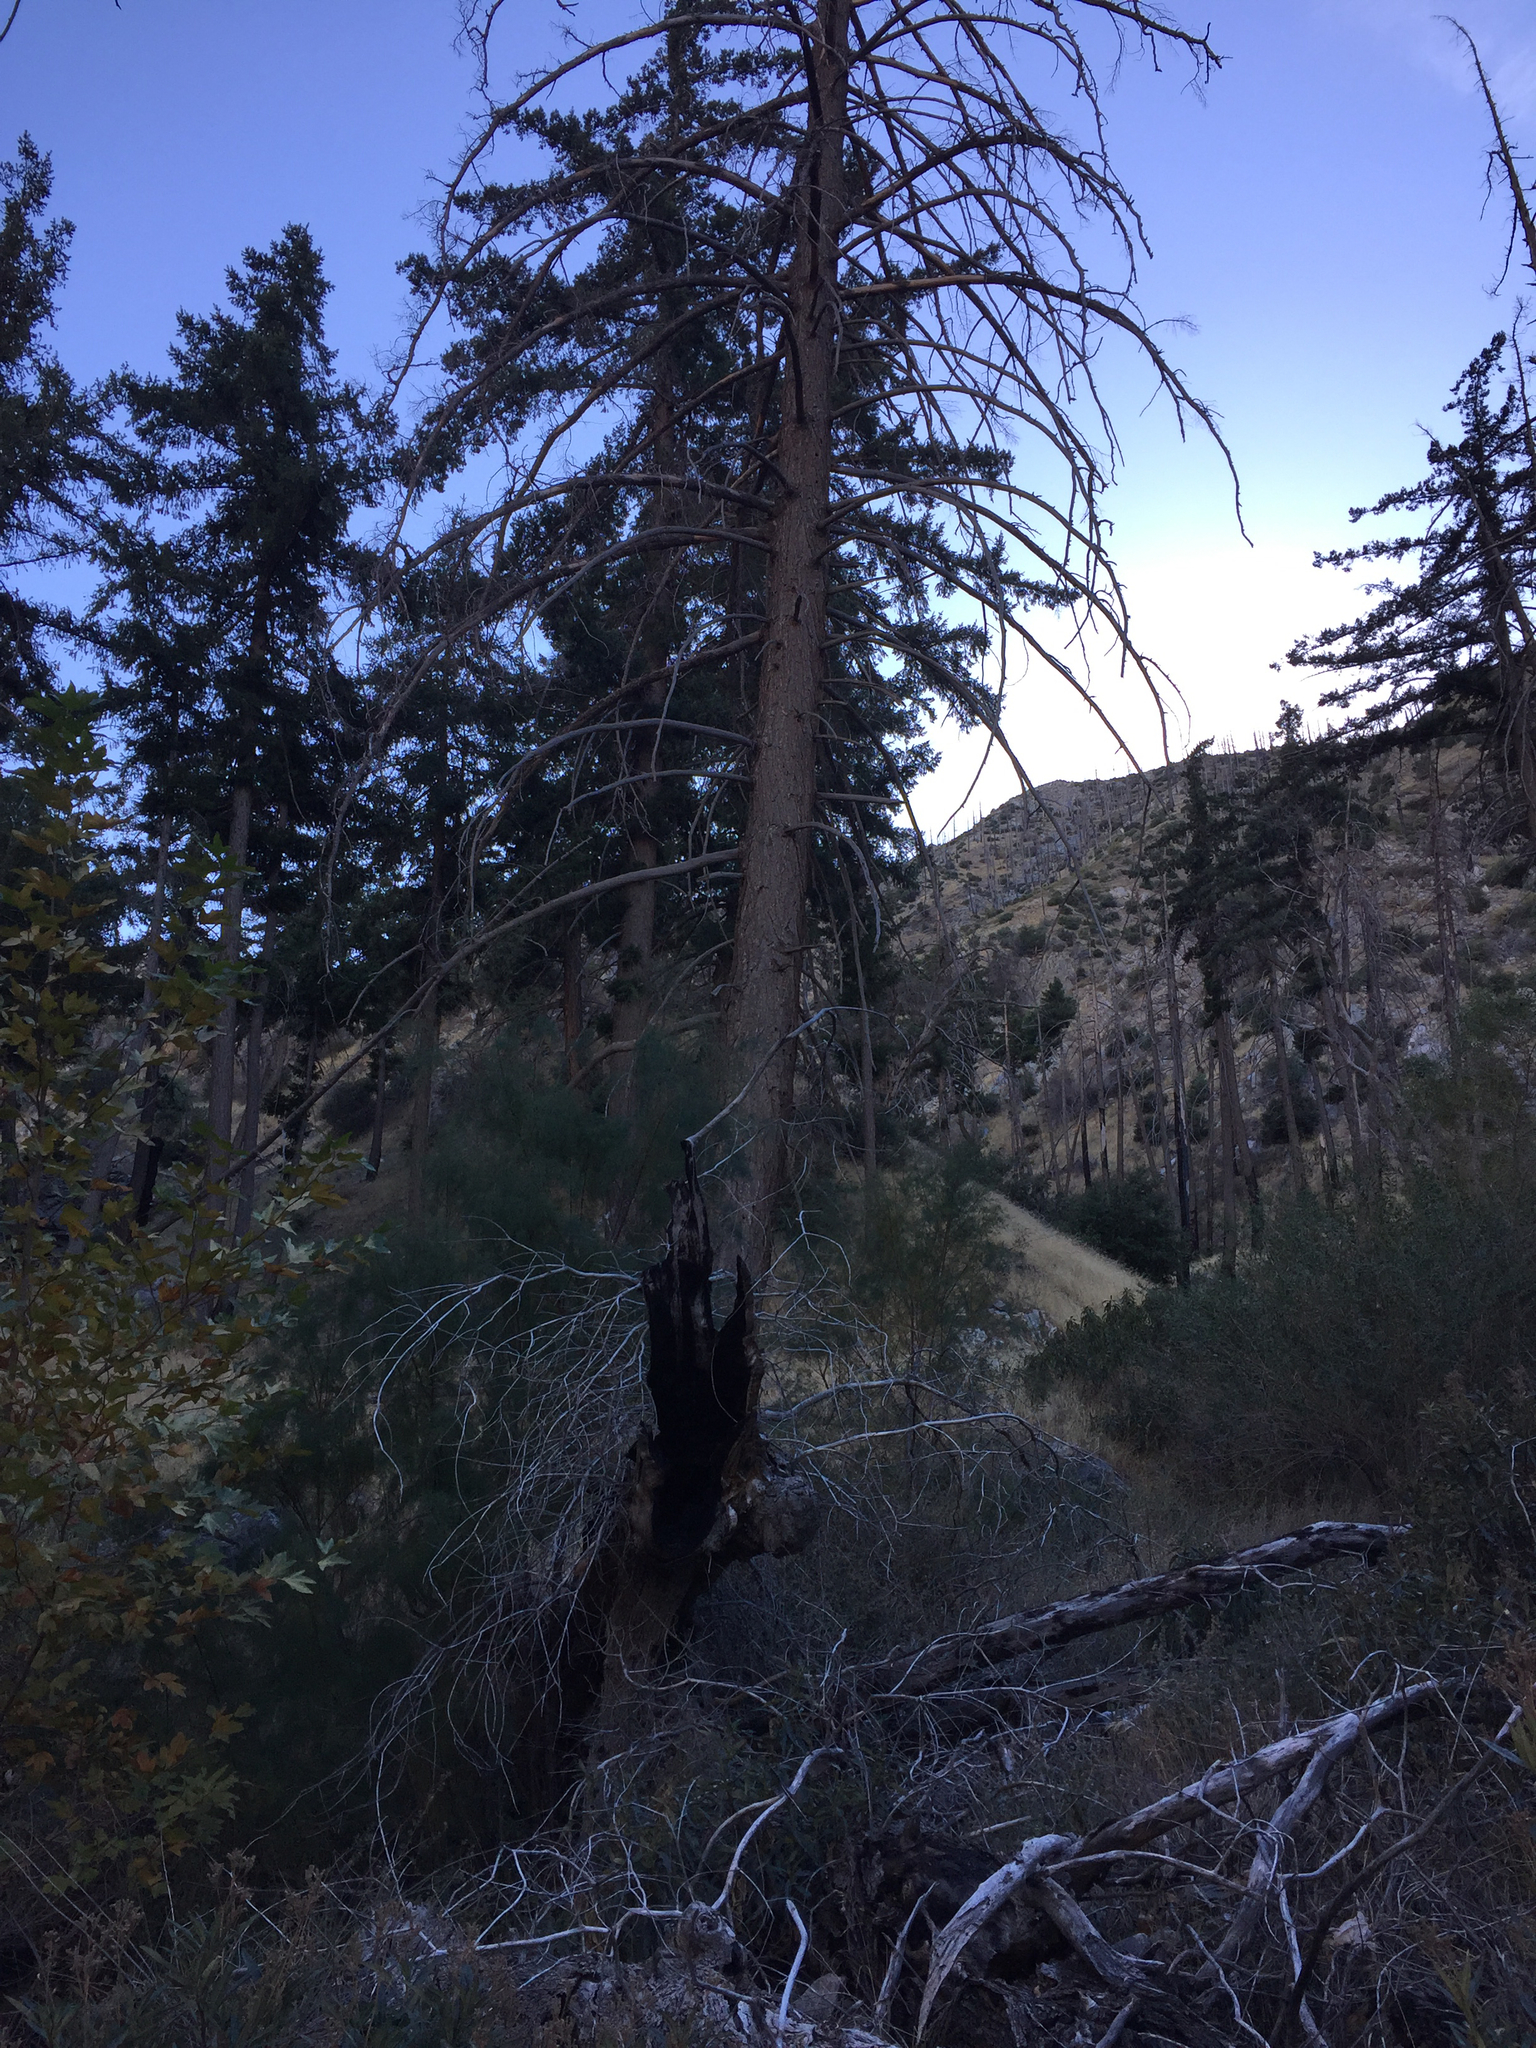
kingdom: Plantae
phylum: Tracheophyta
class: Pinopsida
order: Pinales
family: Pinaceae
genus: Pseudotsuga
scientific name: Pseudotsuga macrocarpa
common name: Big-cone douglas-fir
